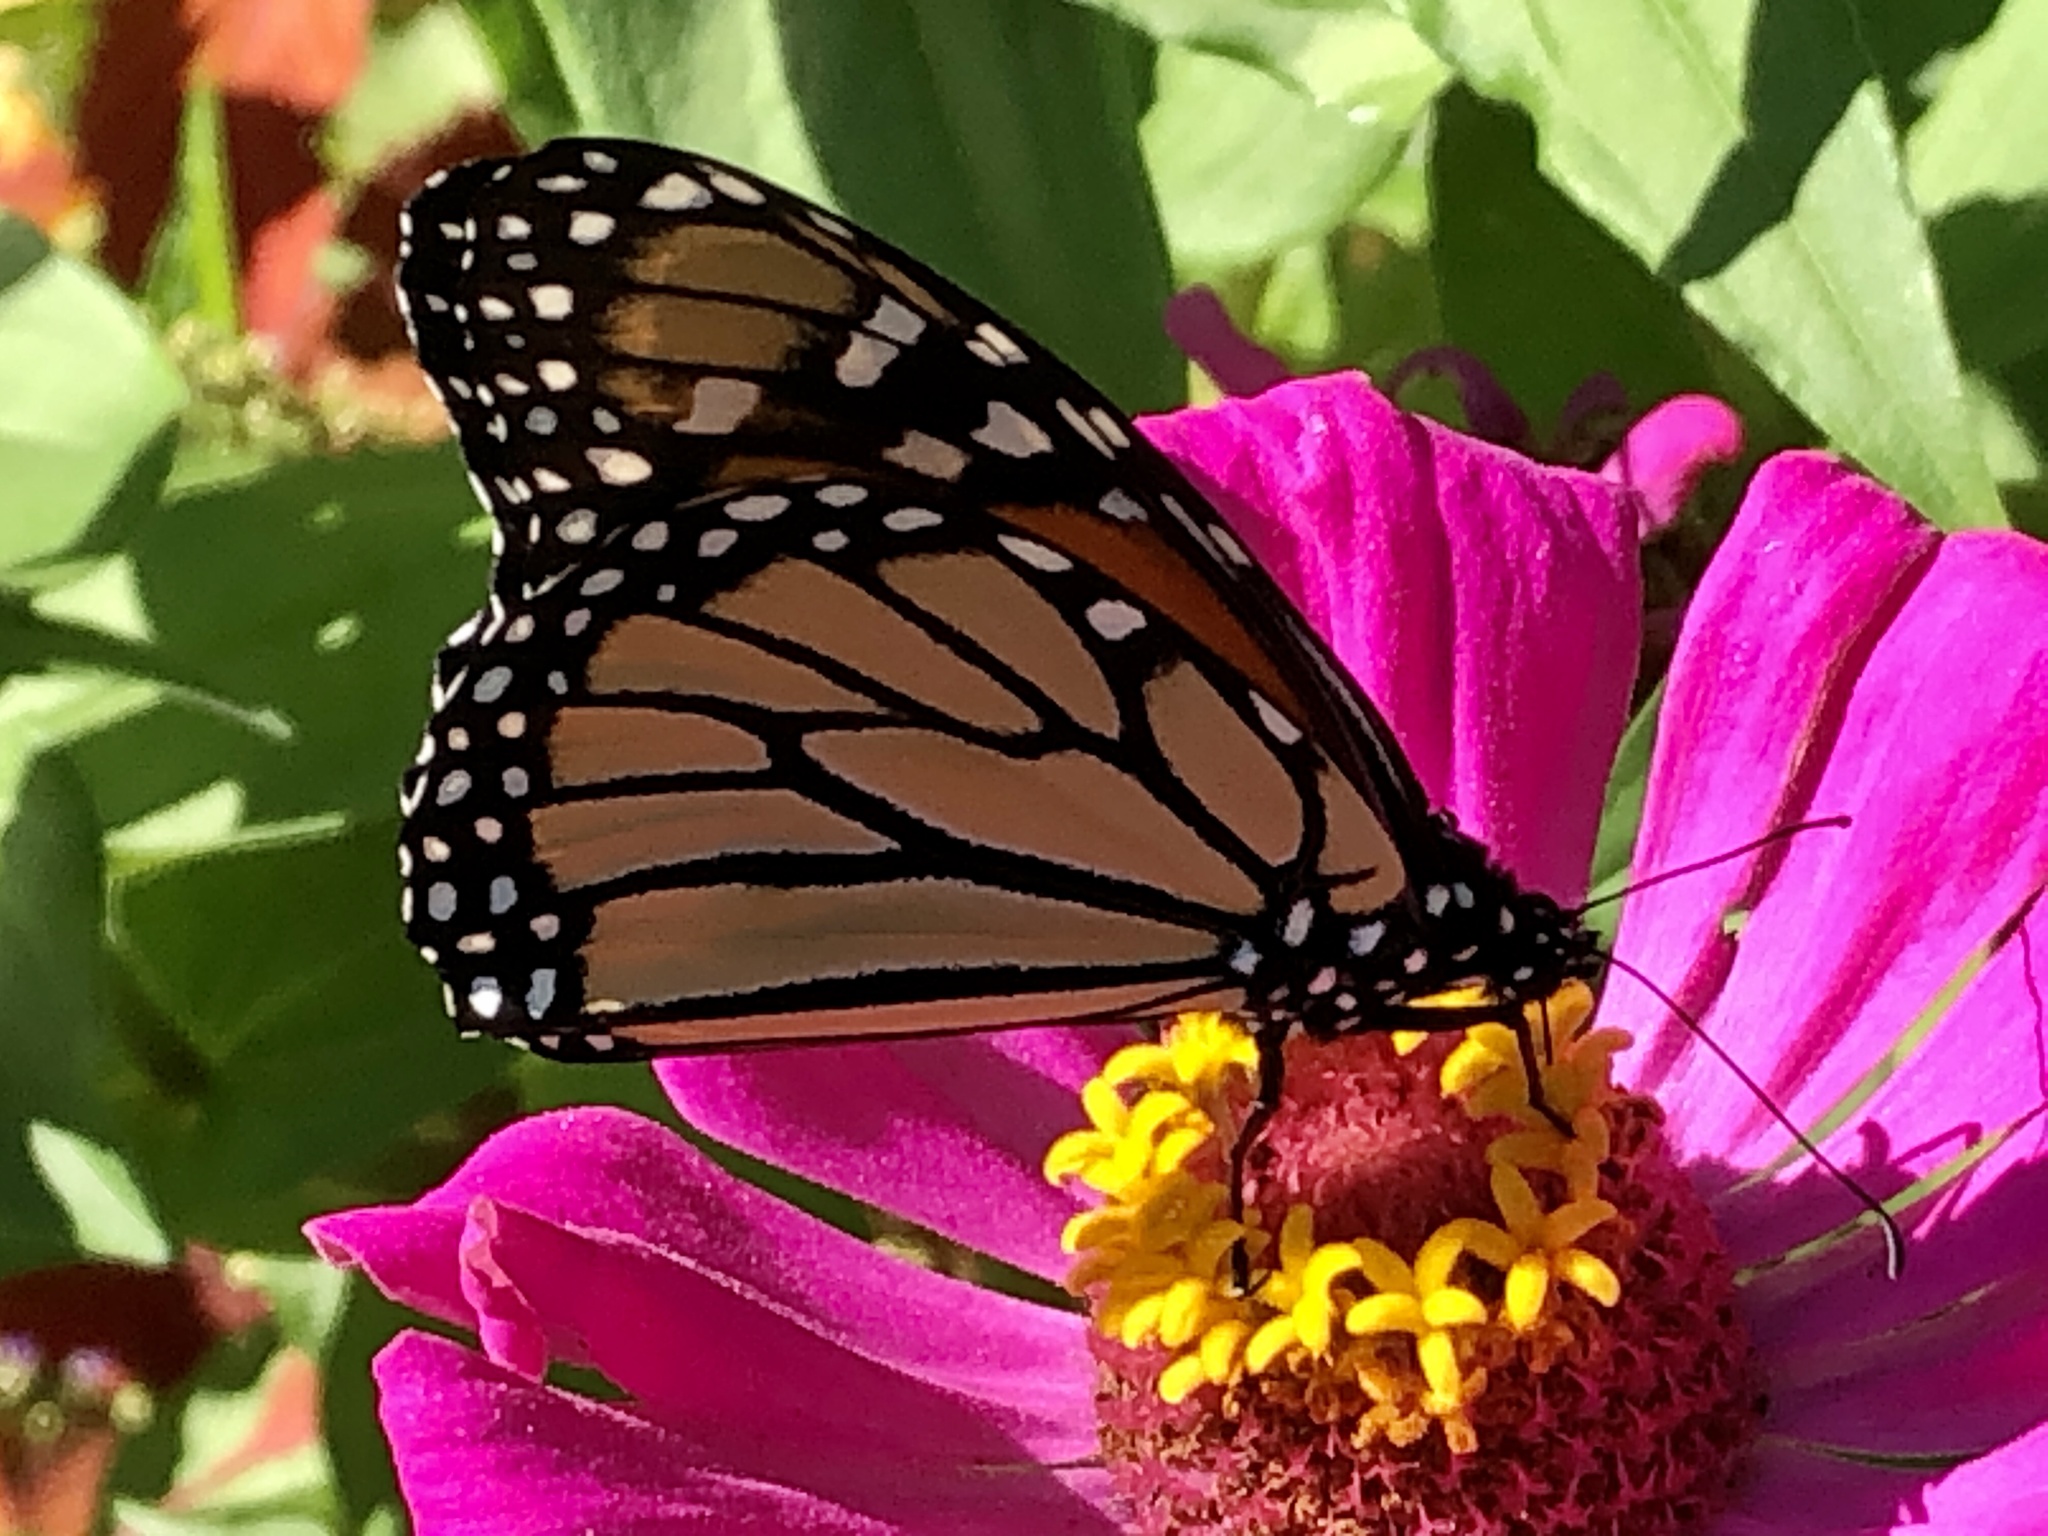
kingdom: Animalia
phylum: Arthropoda
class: Insecta
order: Lepidoptera
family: Nymphalidae
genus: Danaus
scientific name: Danaus plexippus
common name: Monarch
